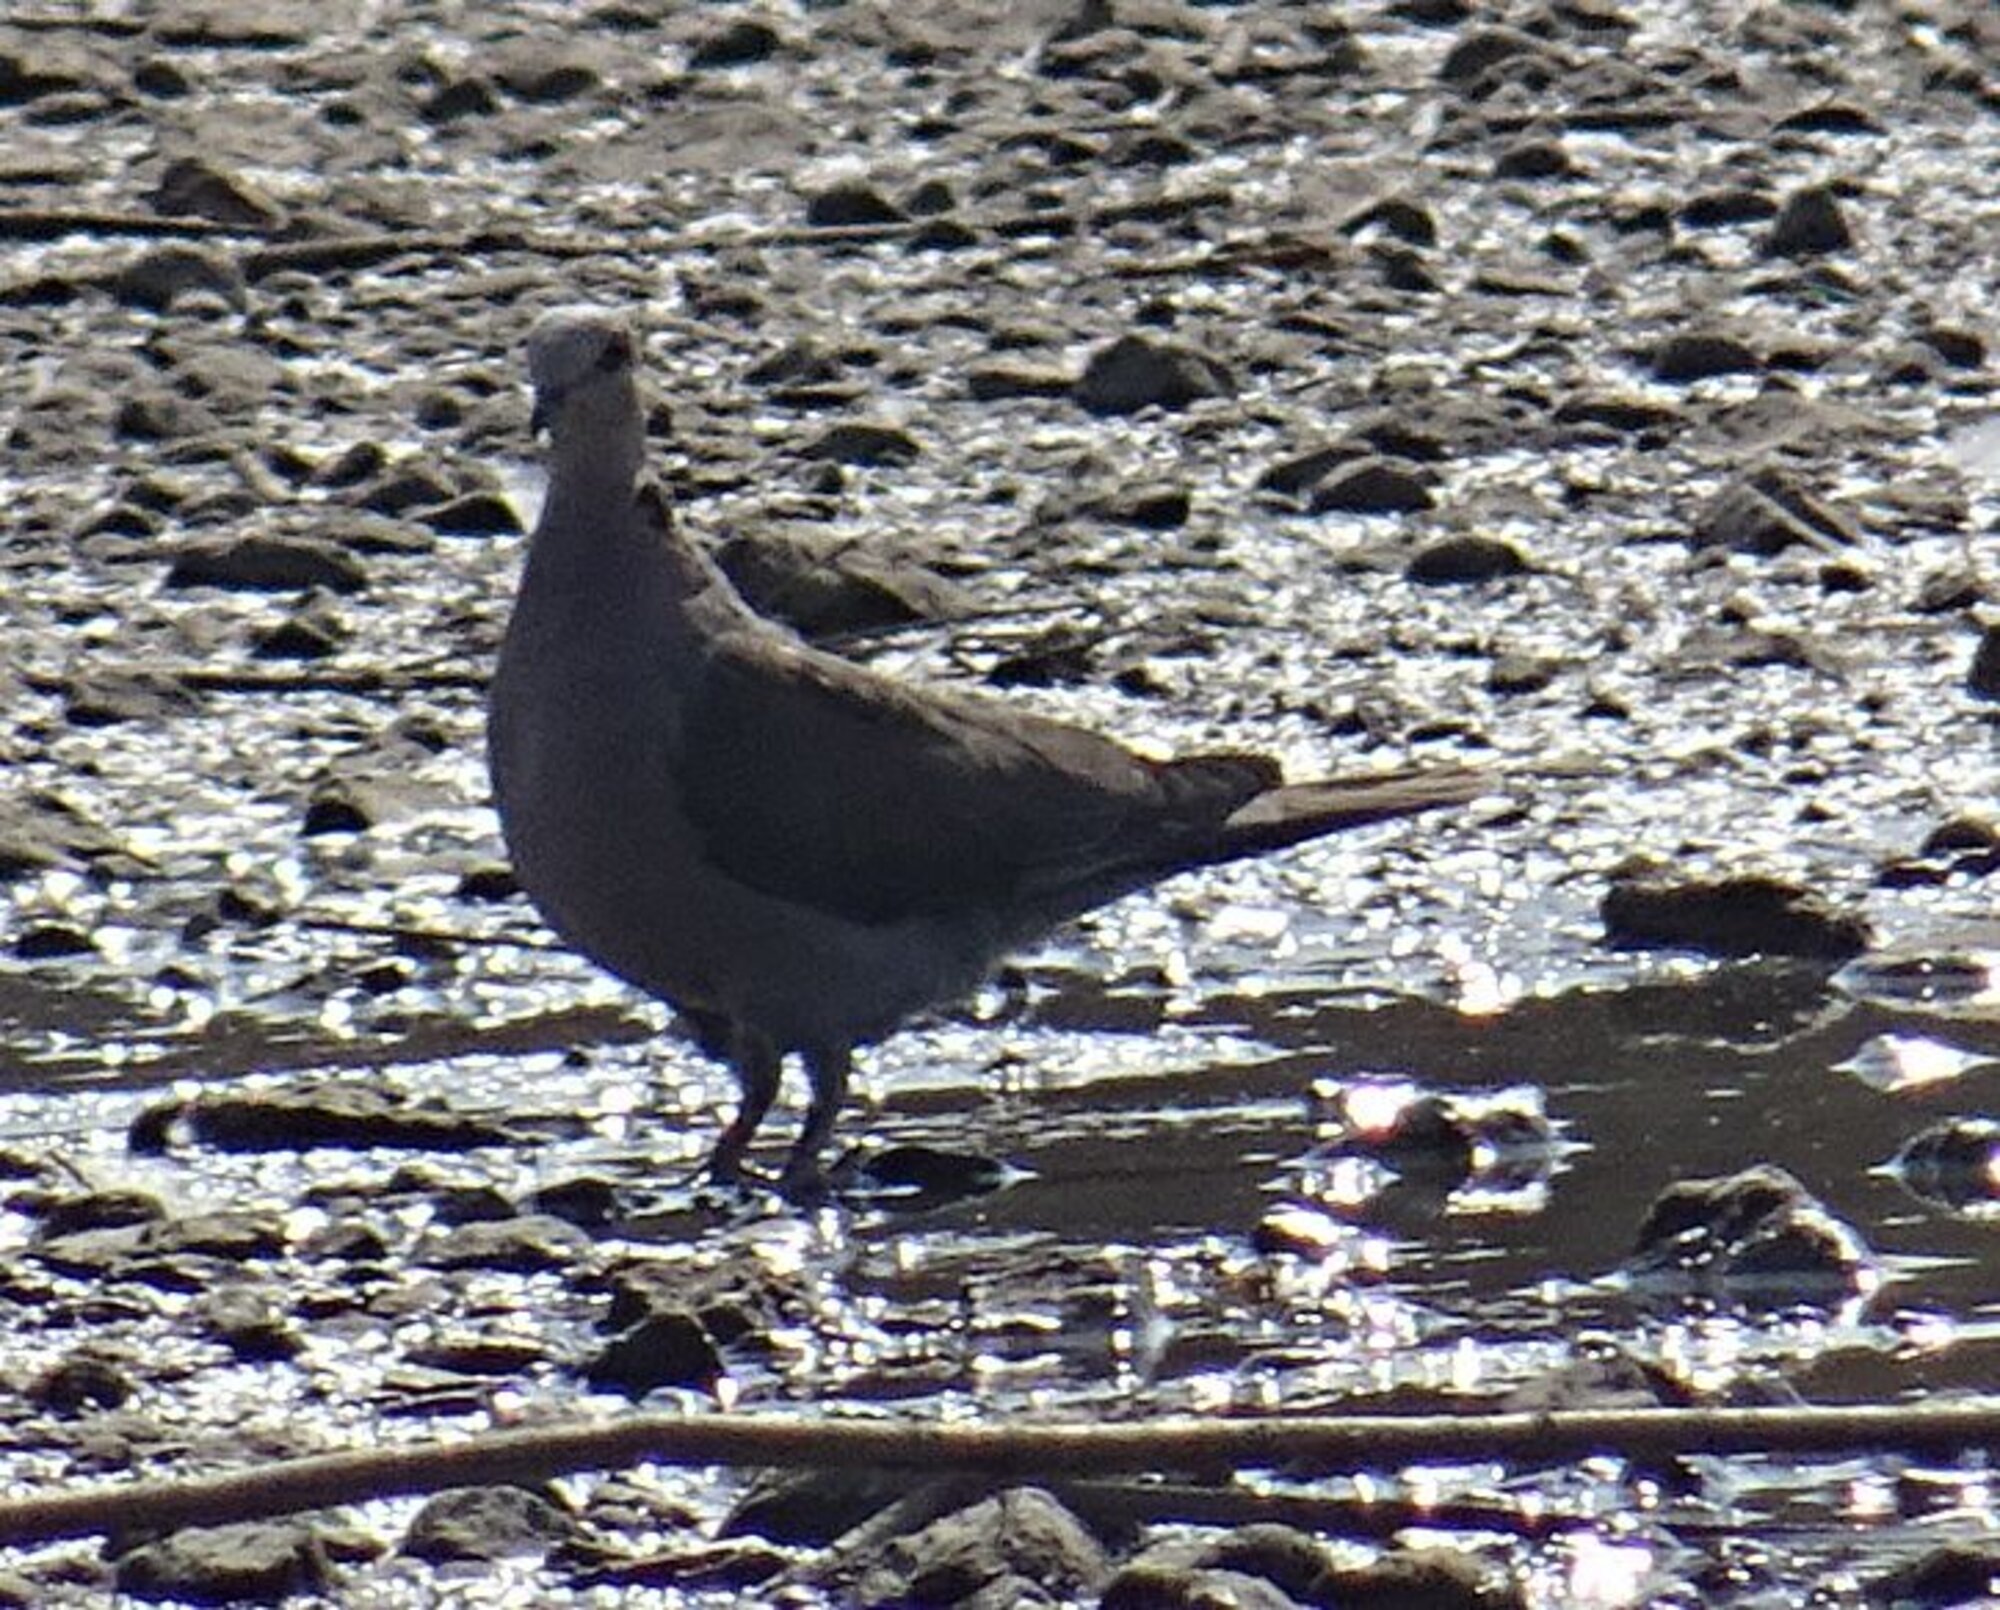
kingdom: Animalia
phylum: Chordata
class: Aves
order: Columbiformes
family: Columbidae
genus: Streptopelia
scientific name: Streptopelia semitorquata
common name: Red-eyed dove
